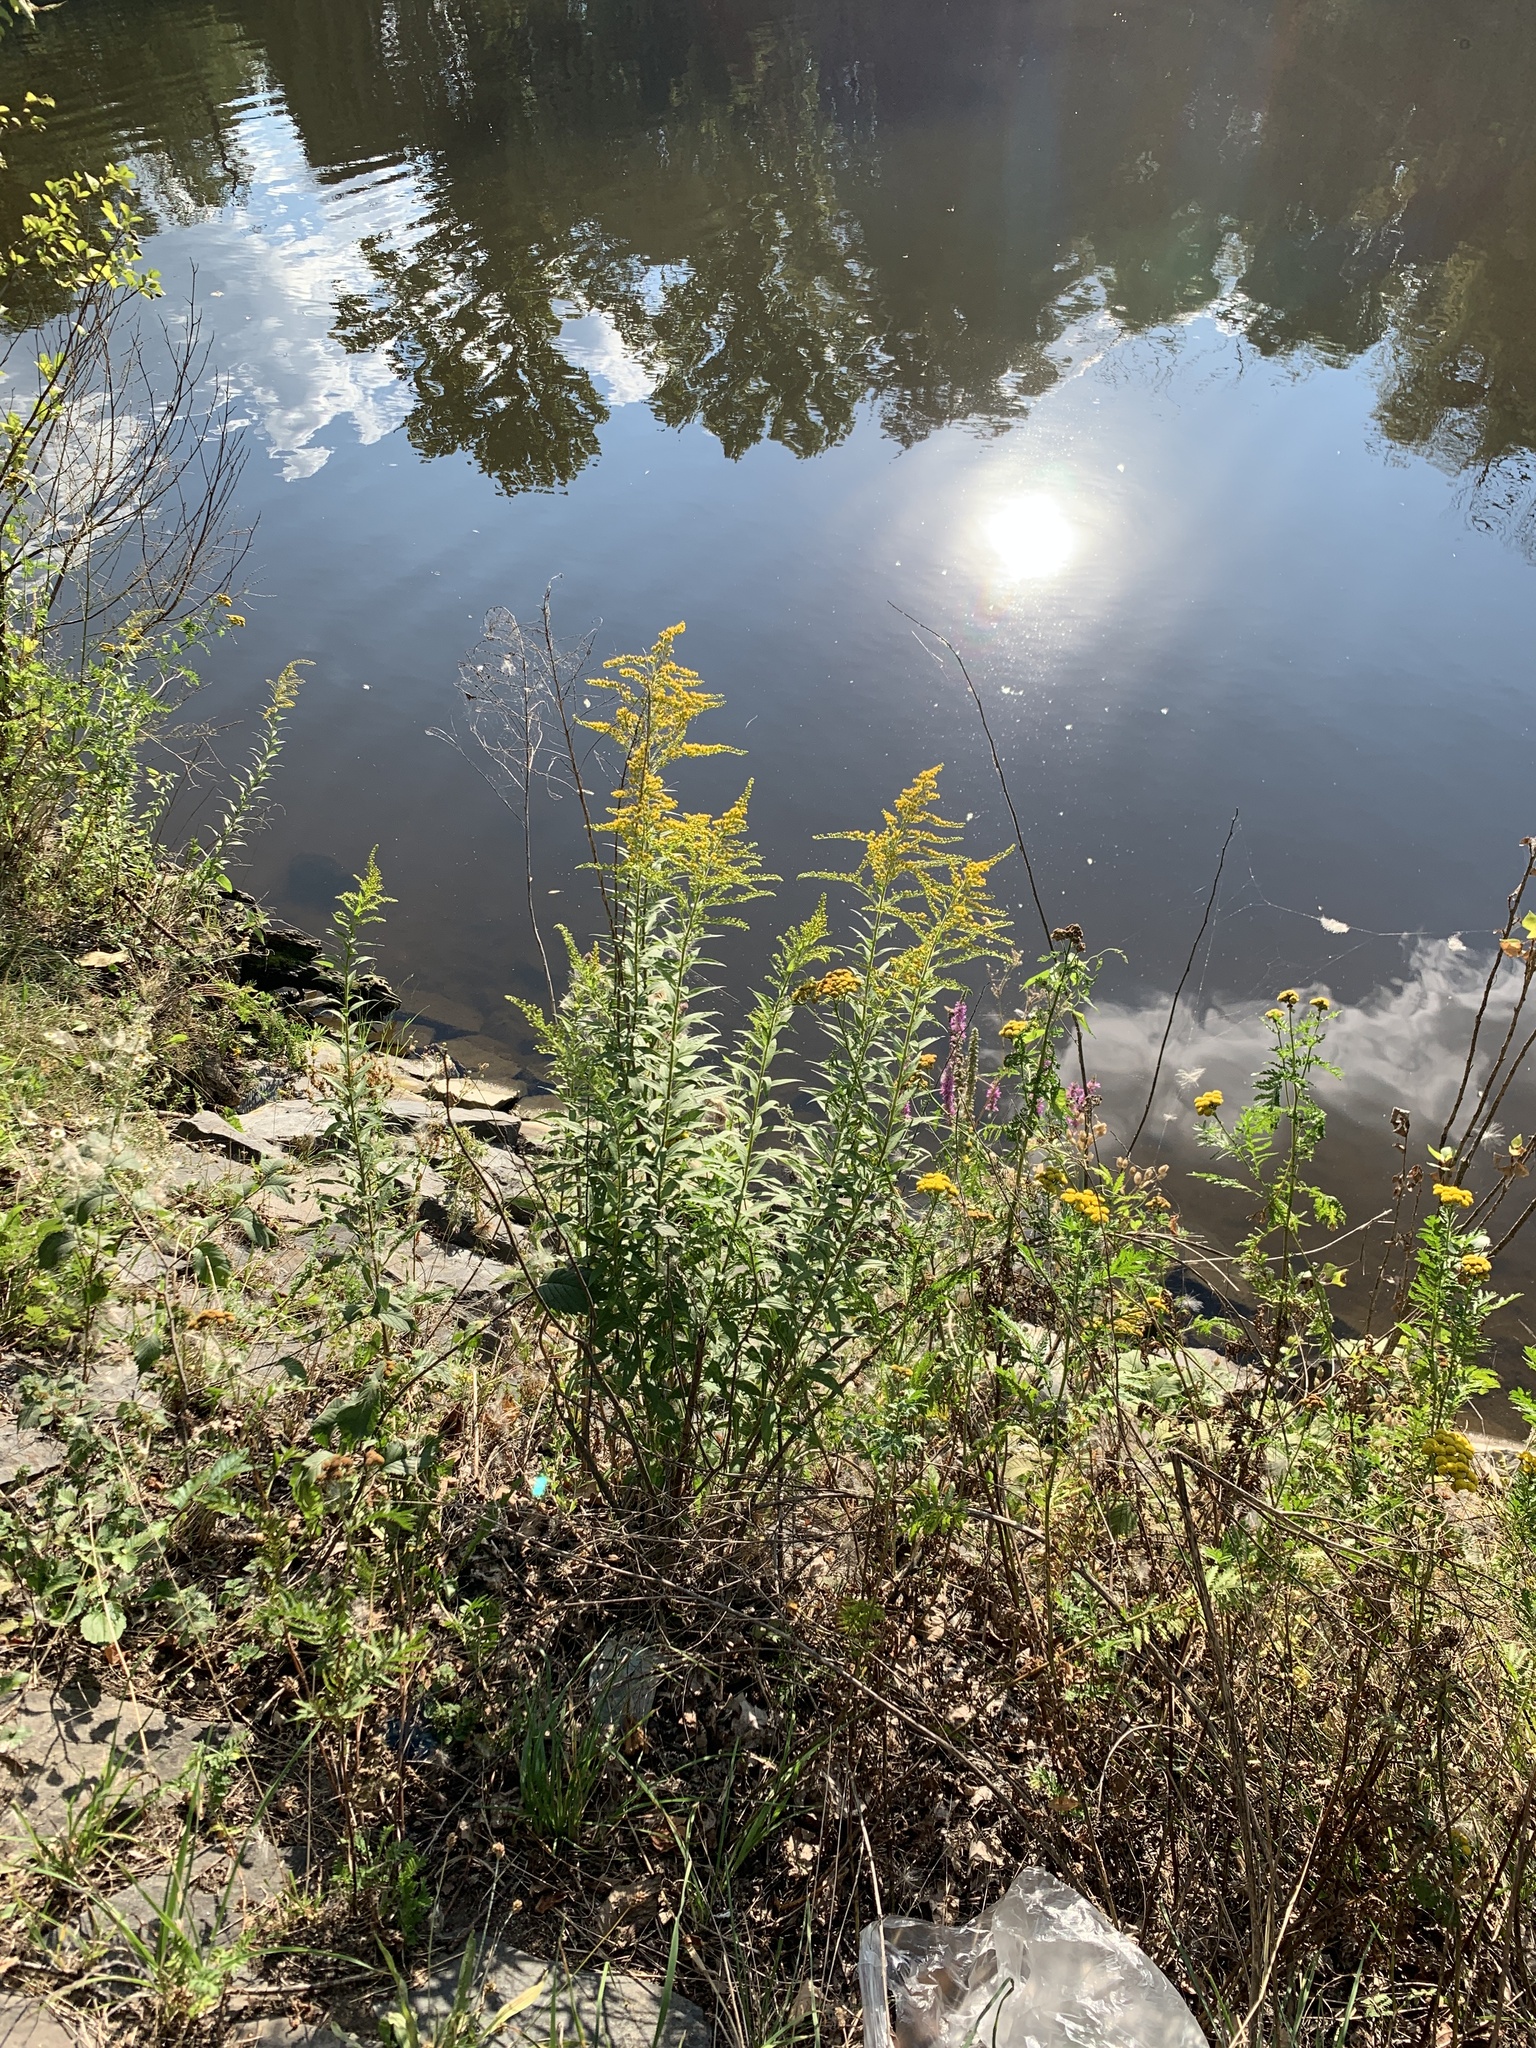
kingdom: Plantae
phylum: Tracheophyta
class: Magnoliopsida
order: Asterales
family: Asteraceae
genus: Solidago
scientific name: Solidago canadensis
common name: Canada goldenrod
